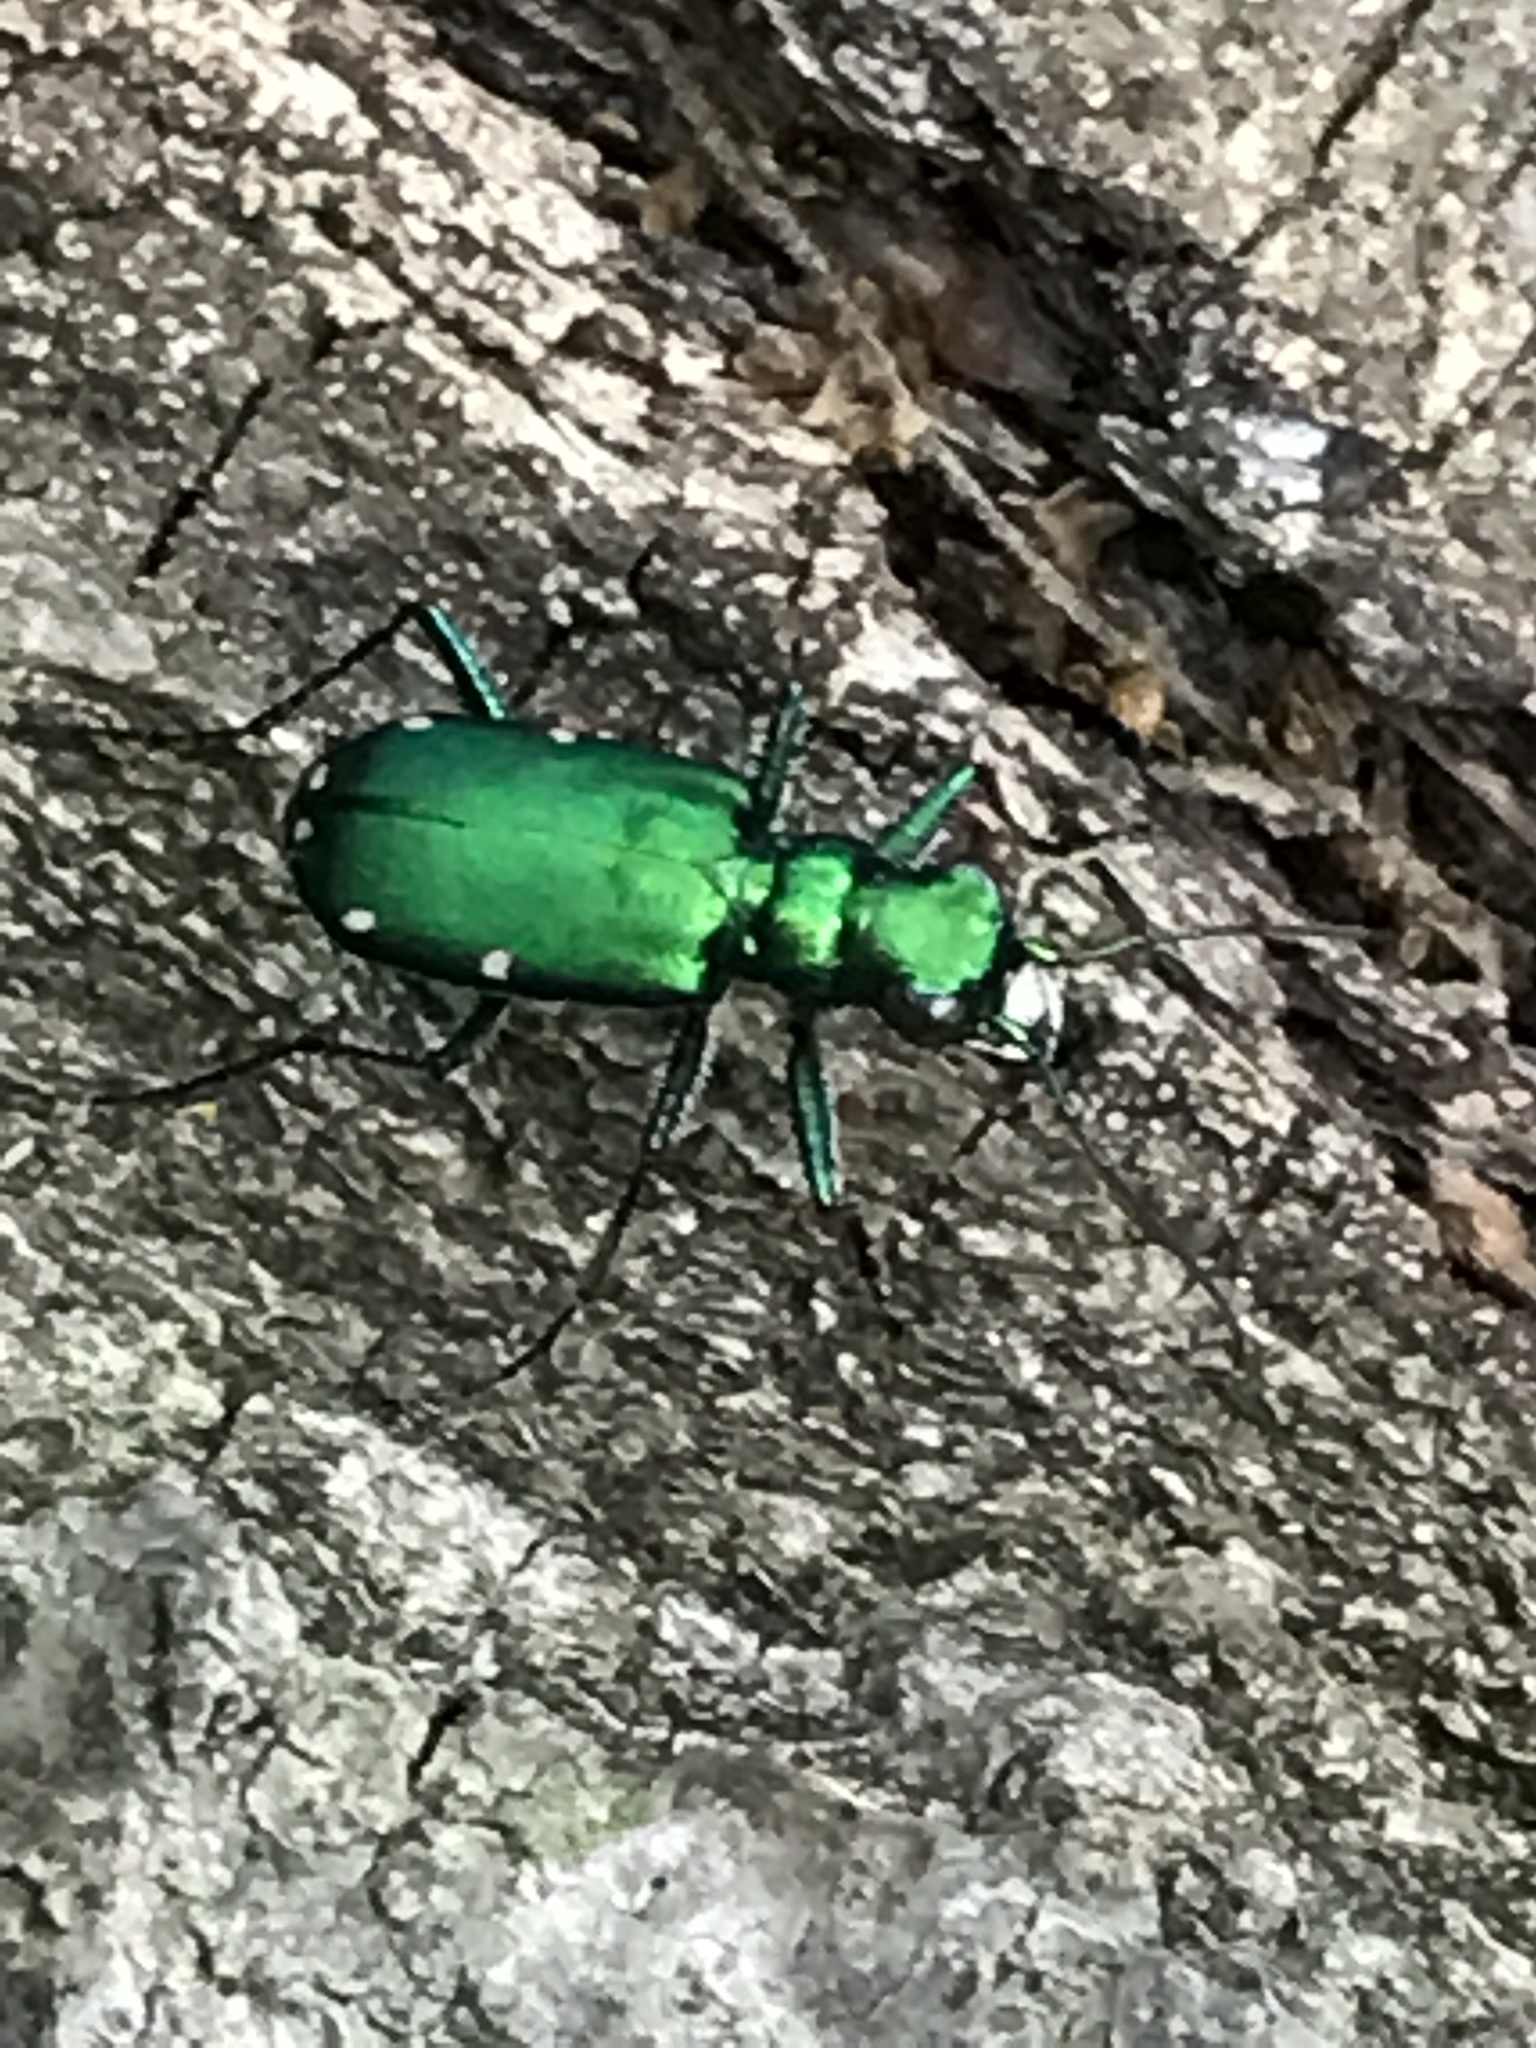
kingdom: Animalia
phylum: Arthropoda
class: Insecta
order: Coleoptera
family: Carabidae
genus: Cicindela
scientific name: Cicindela sexguttata
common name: Six-spotted tiger beetle
